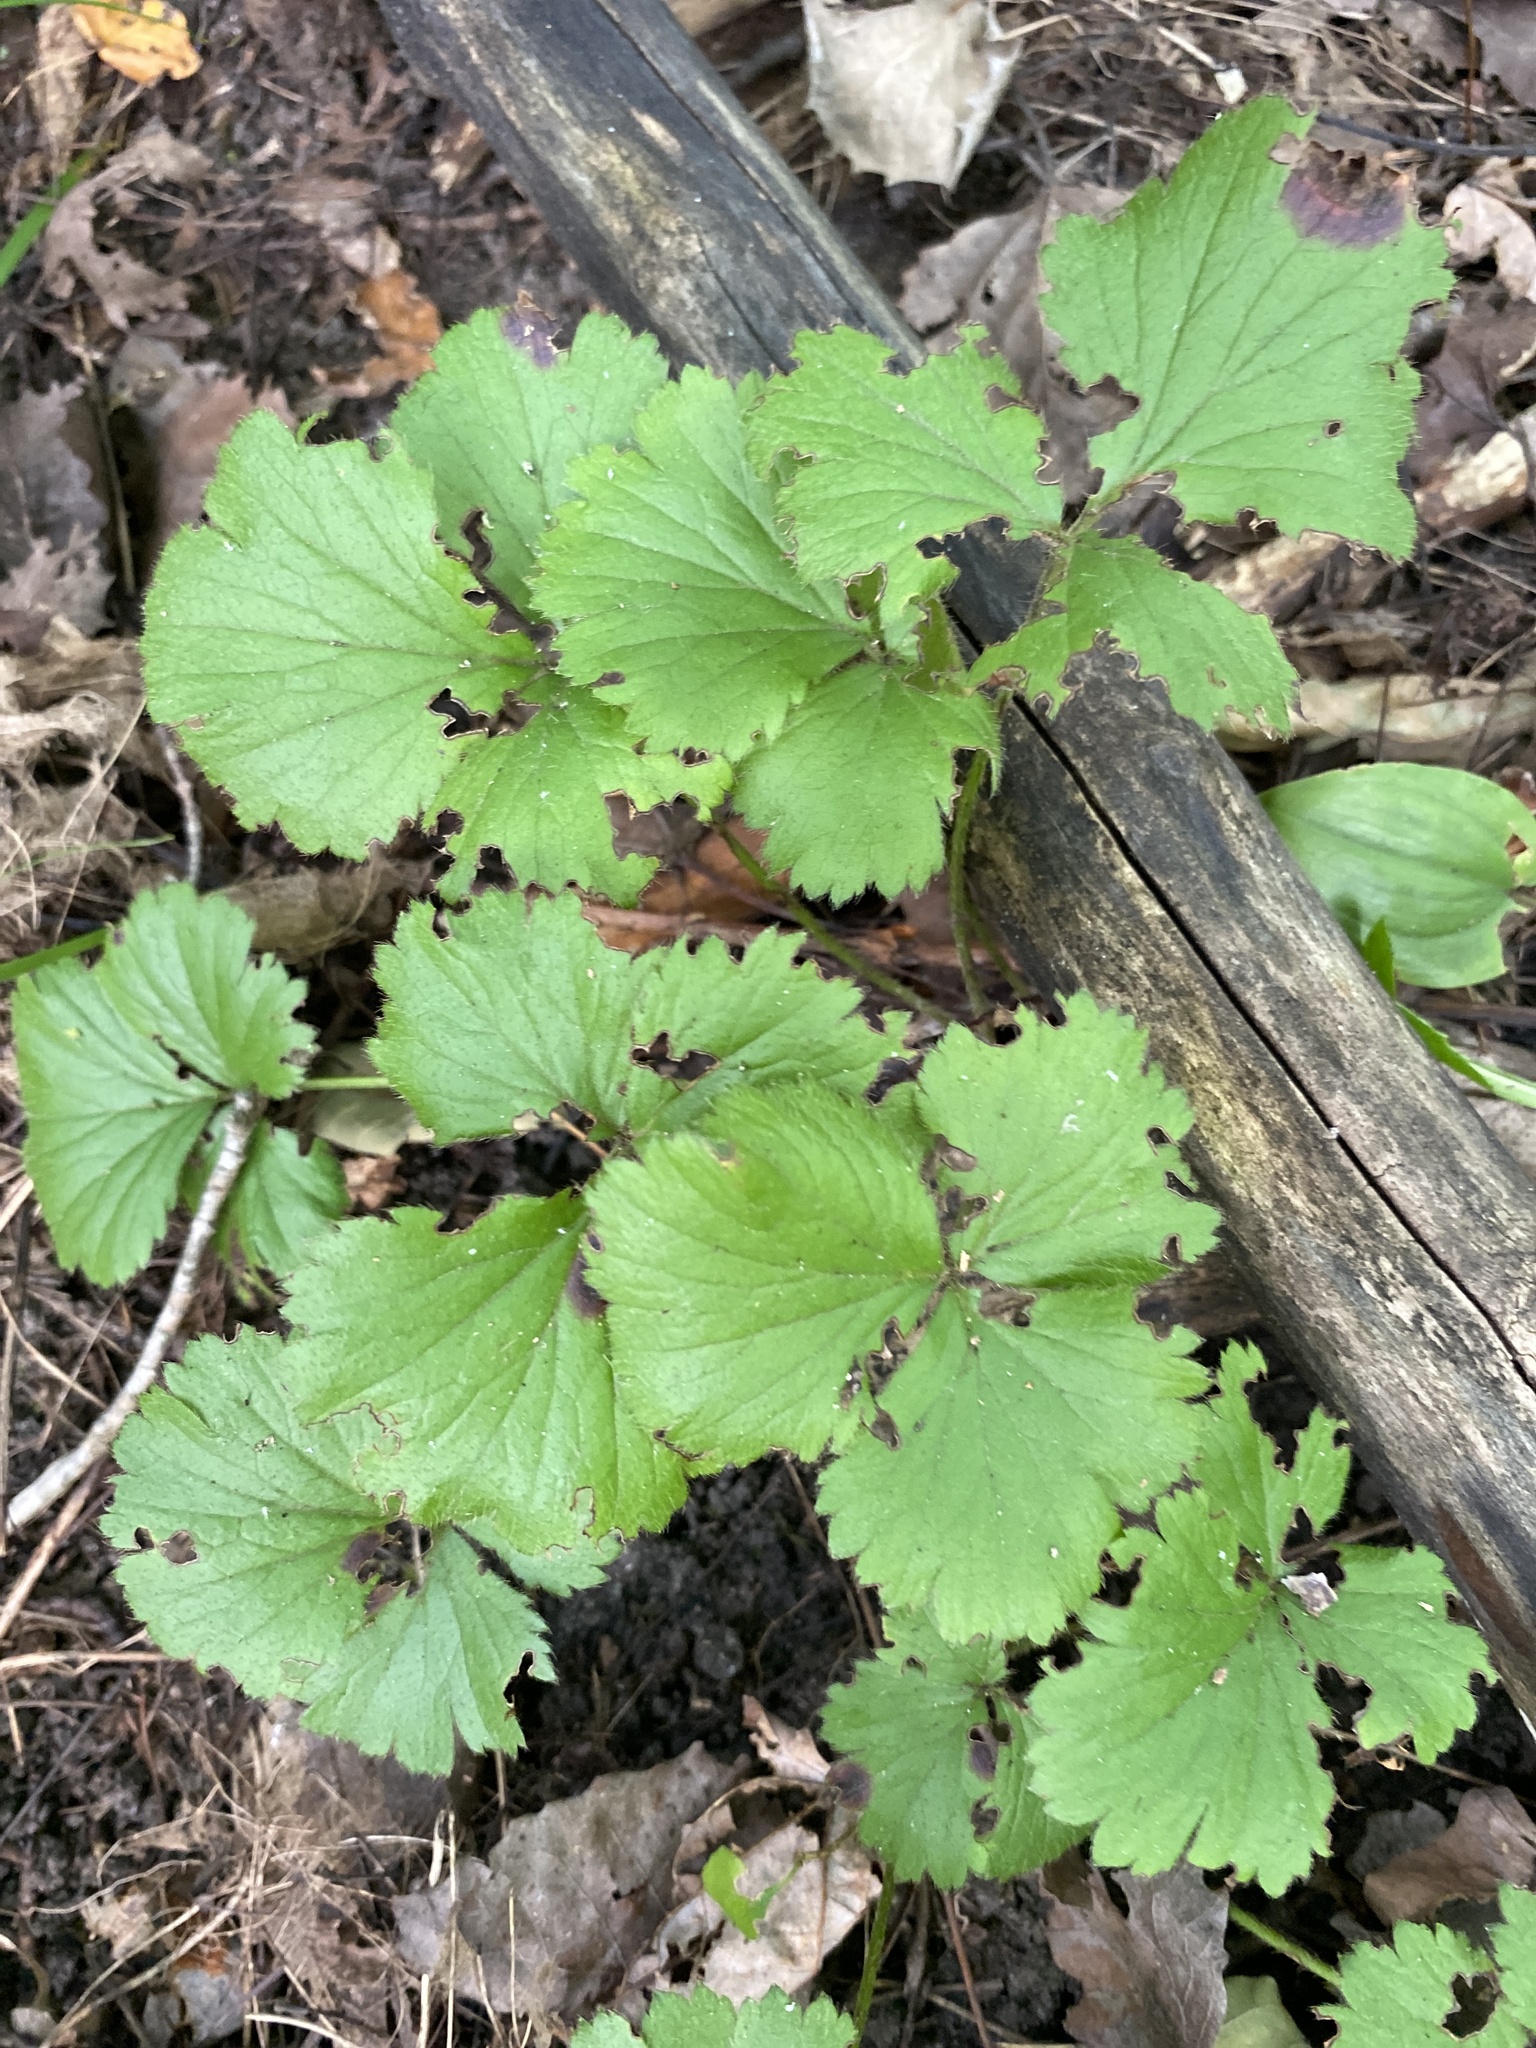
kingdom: Plantae
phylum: Tracheophyta
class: Magnoliopsida
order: Rosales
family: Rosaceae
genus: Geum
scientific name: Geum fragarioides
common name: Appalachian barren strawberry
